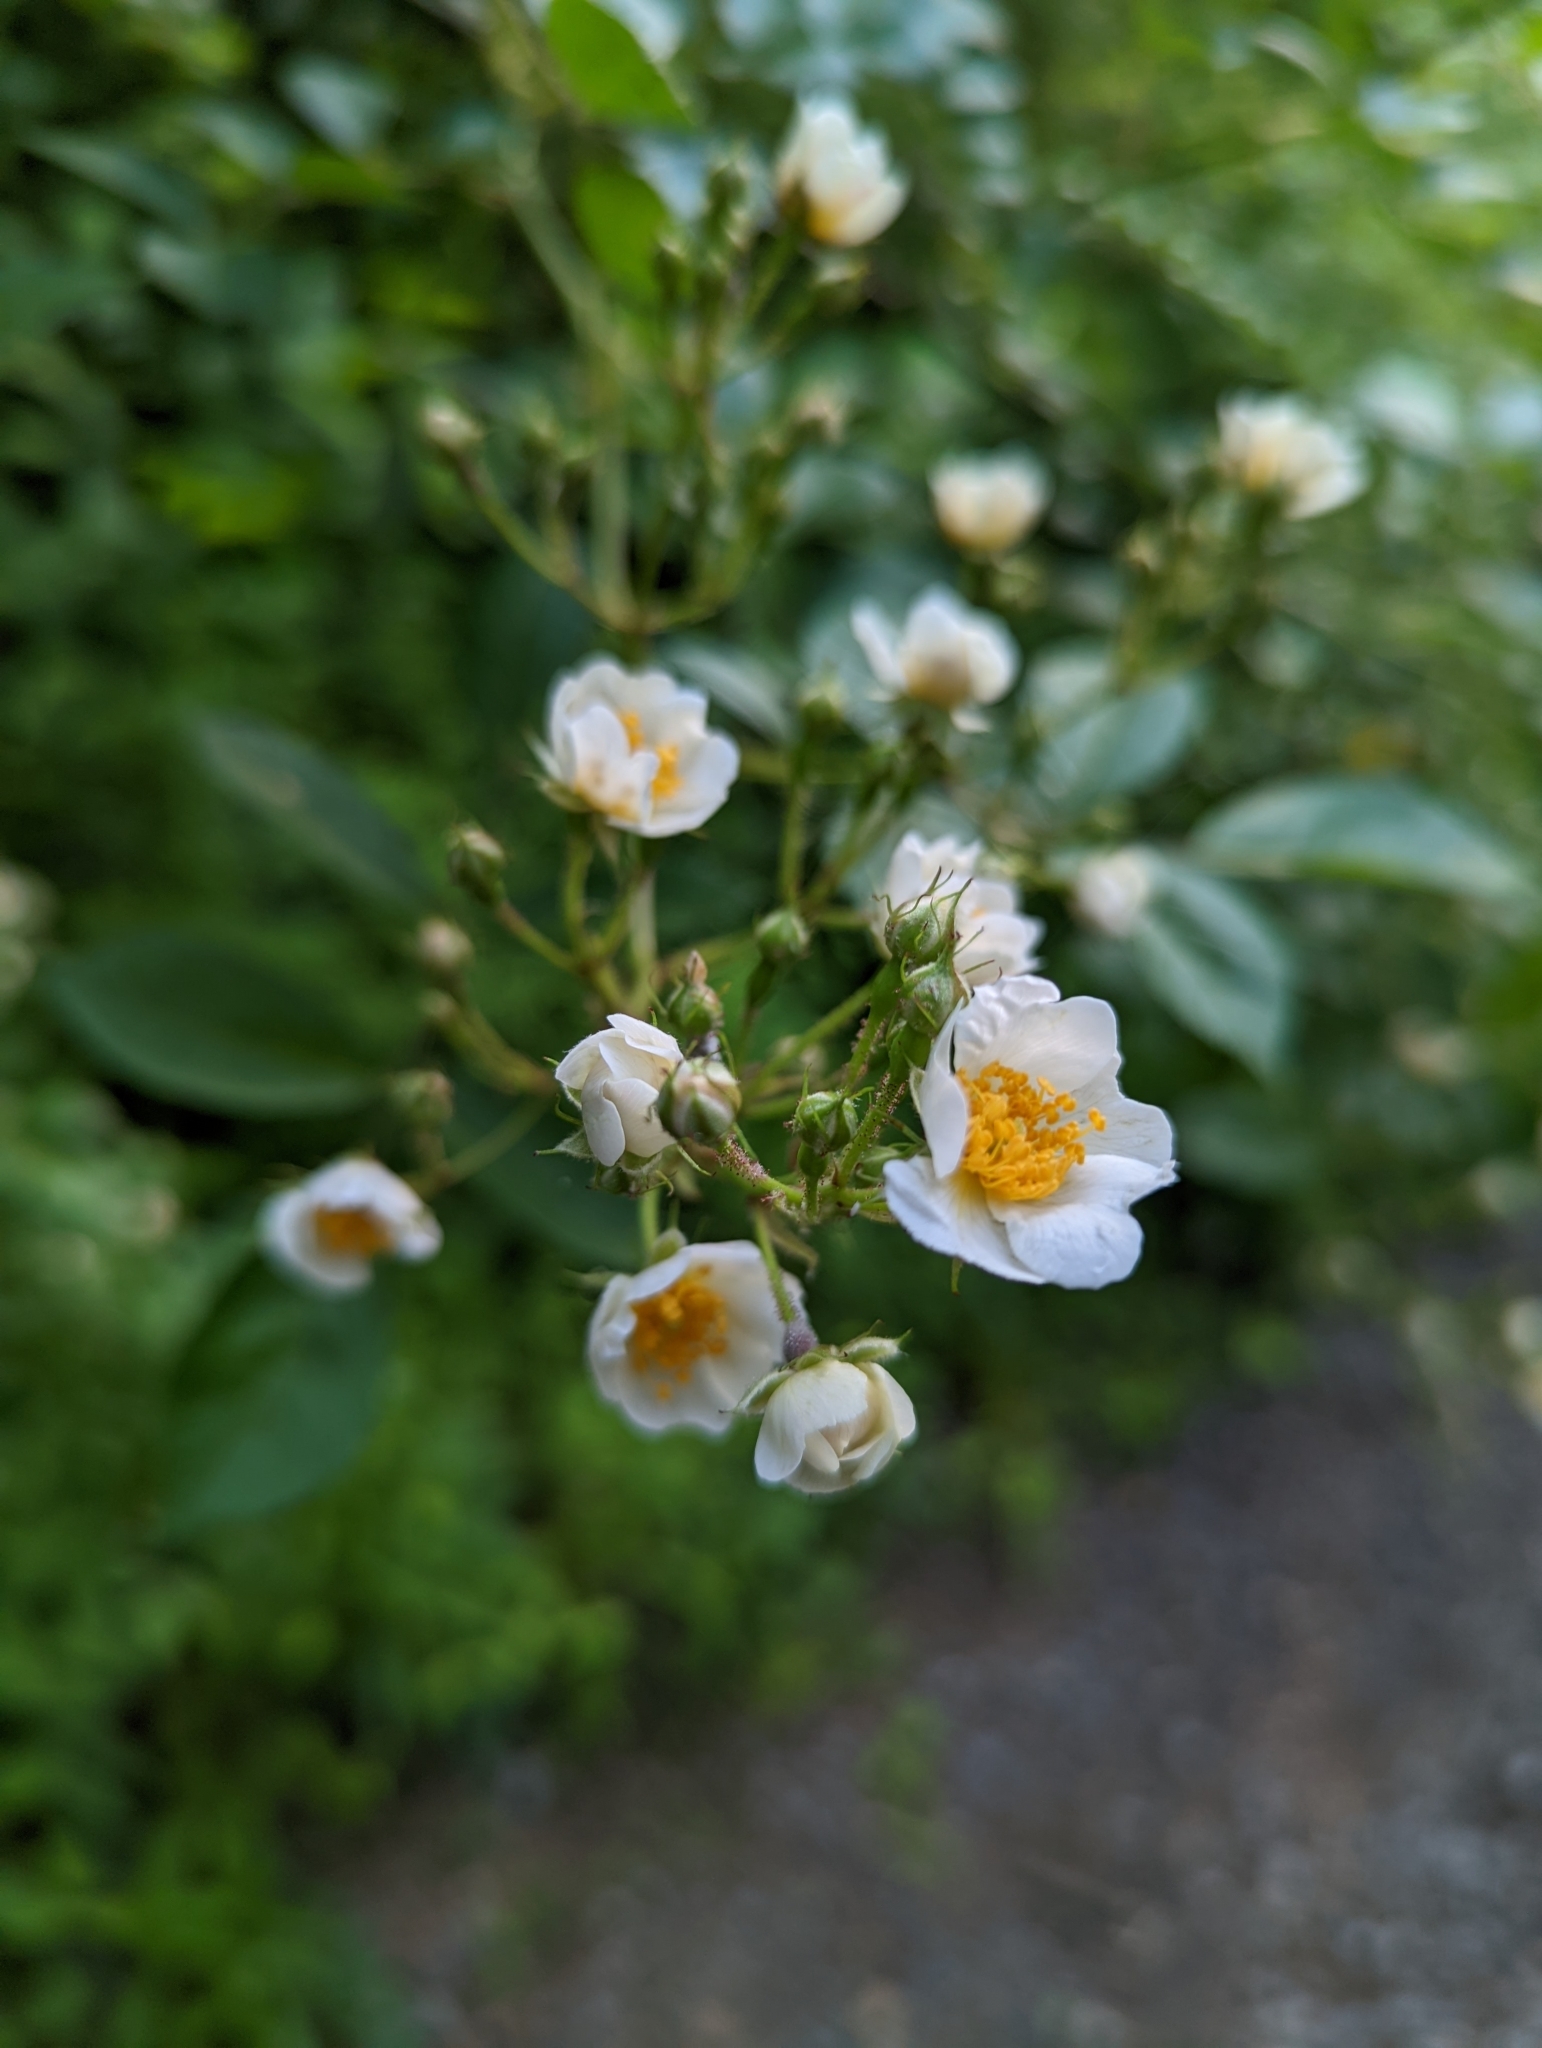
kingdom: Plantae
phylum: Tracheophyta
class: Magnoliopsida
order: Rosales
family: Rosaceae
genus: Rosa
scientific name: Rosa multiflora
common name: Multiflora rose
